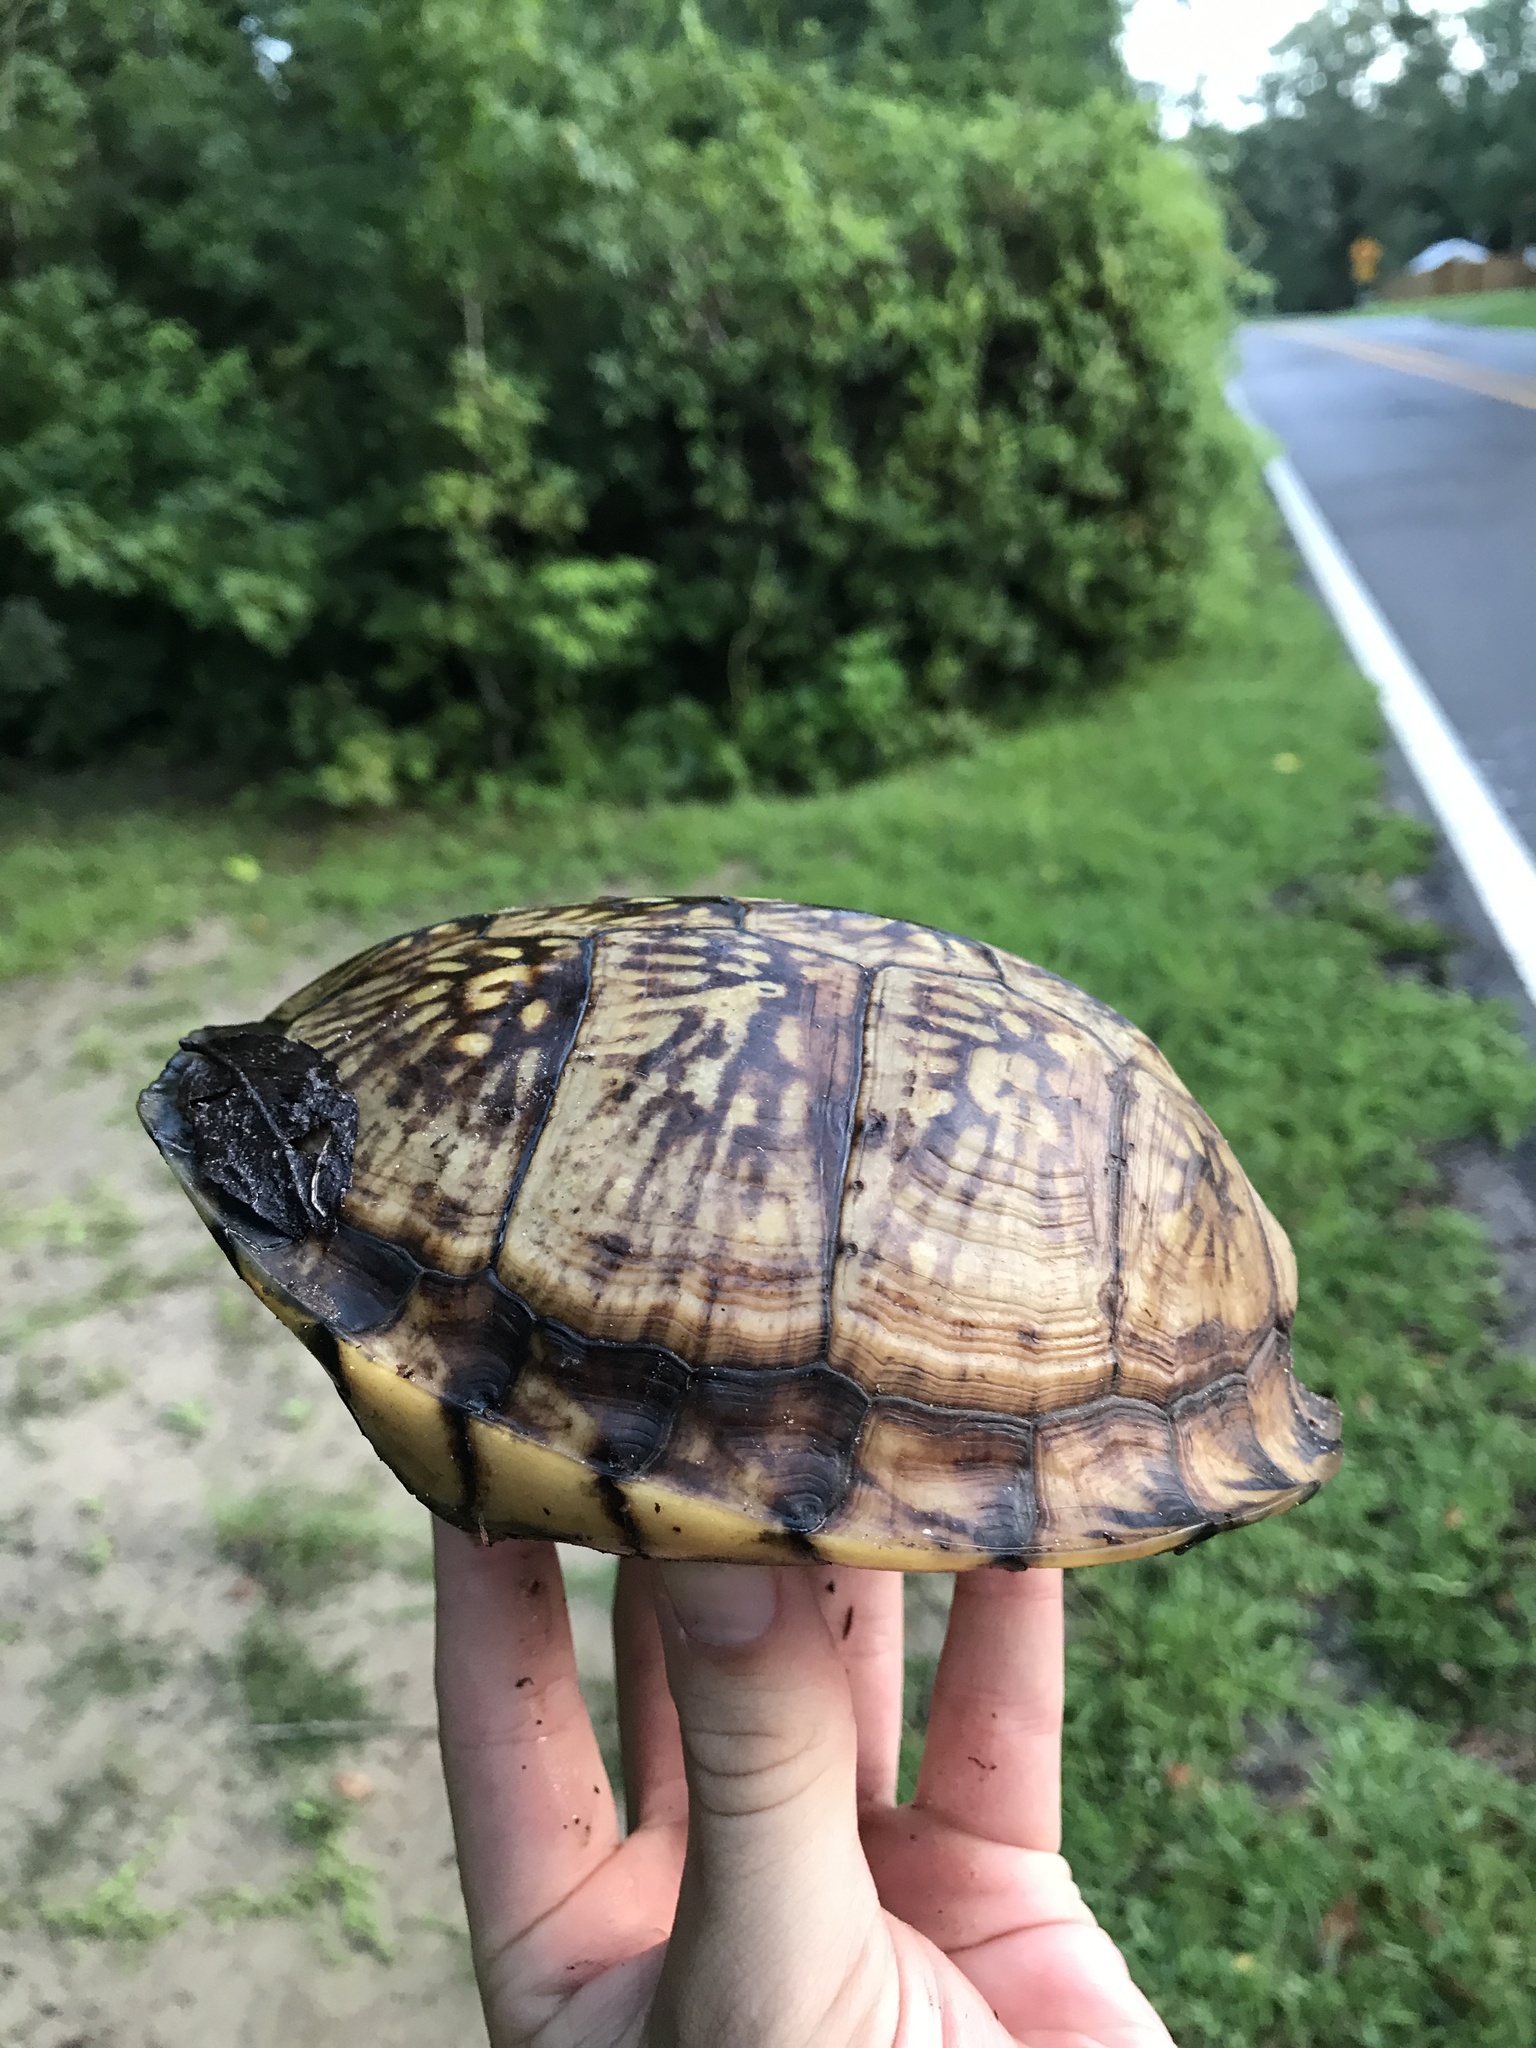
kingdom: Animalia
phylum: Chordata
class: Testudines
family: Emydidae
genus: Terrapene
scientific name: Terrapene carolina
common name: Common box turtle
